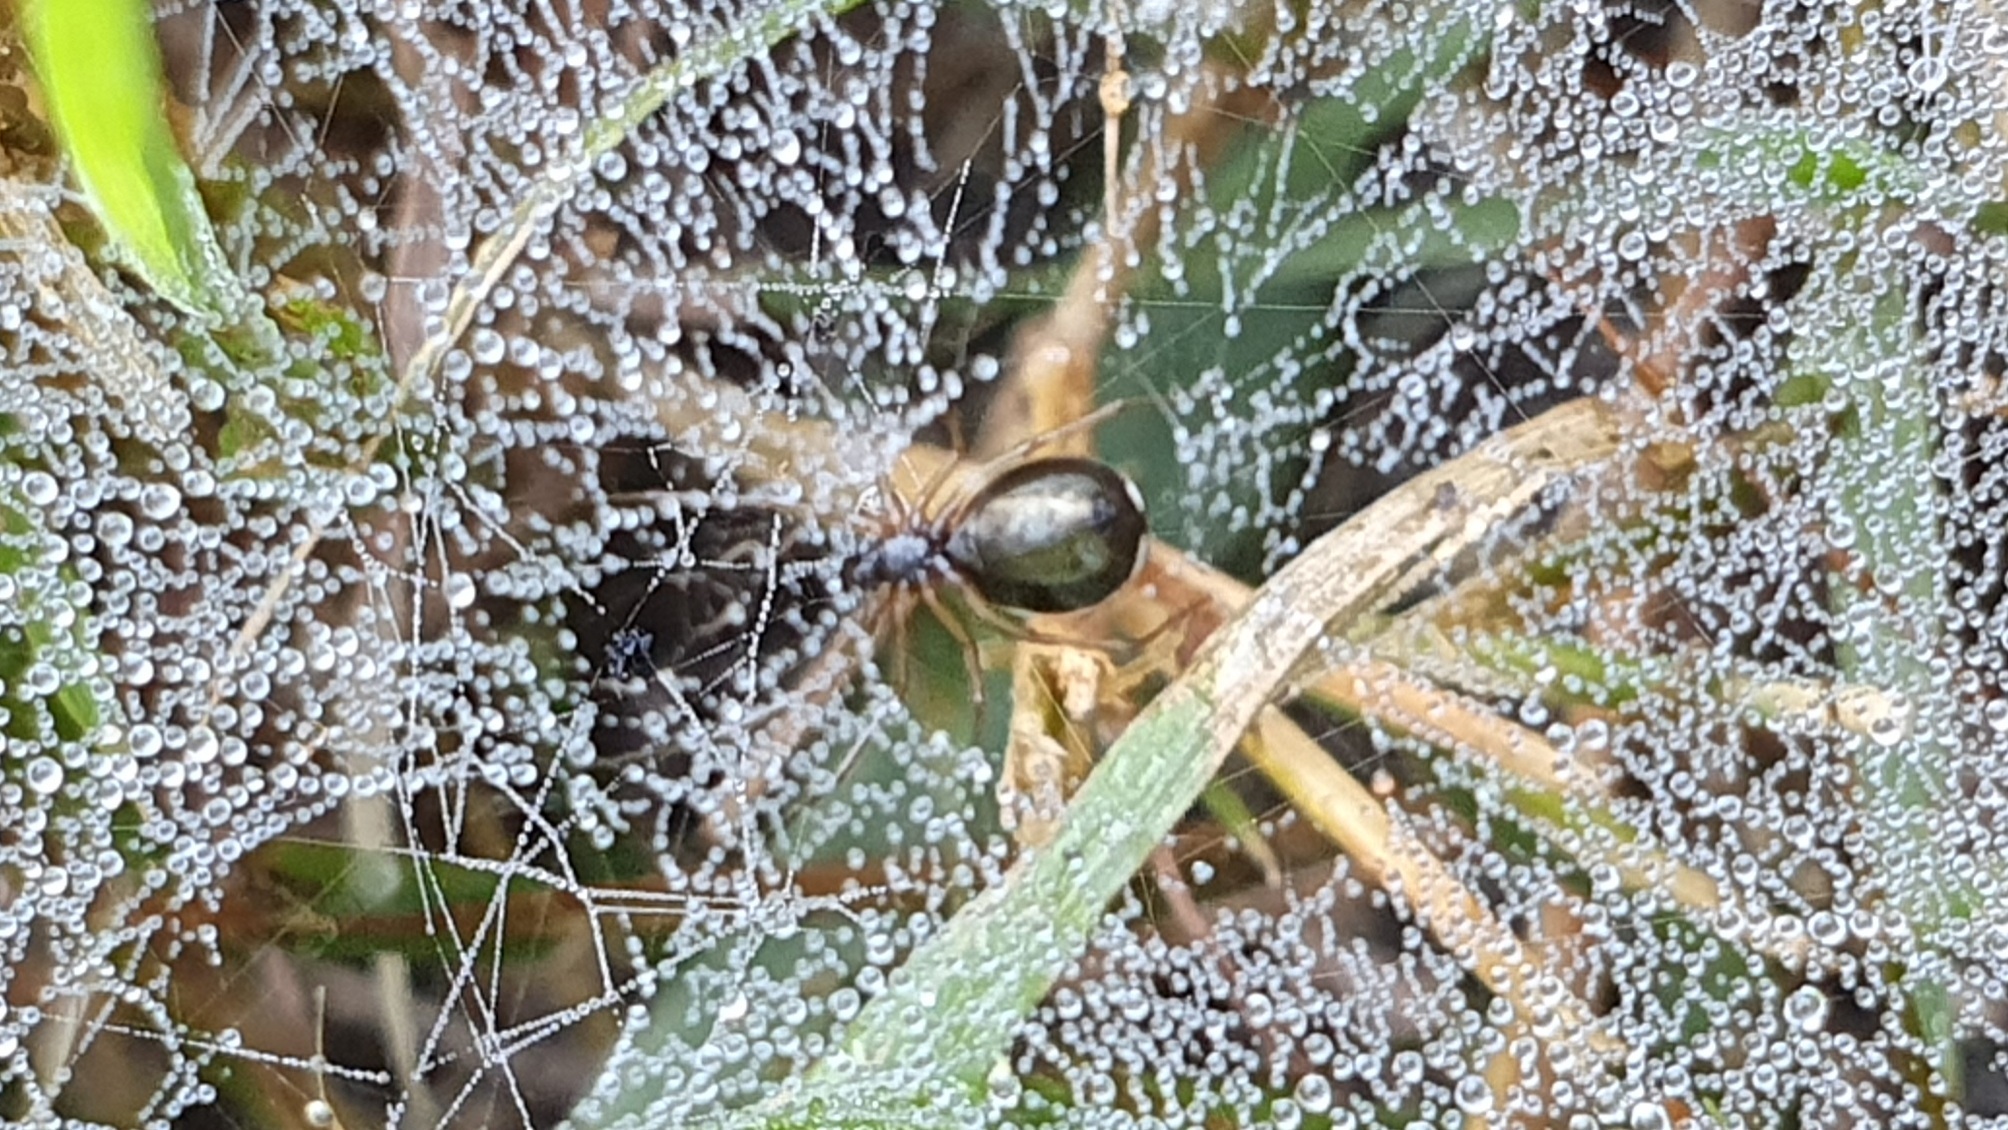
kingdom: Animalia
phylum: Arthropoda
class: Arachnida
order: Araneae
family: Linyphiidae
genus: Microlinyphia
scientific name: Microlinyphia pusilla
